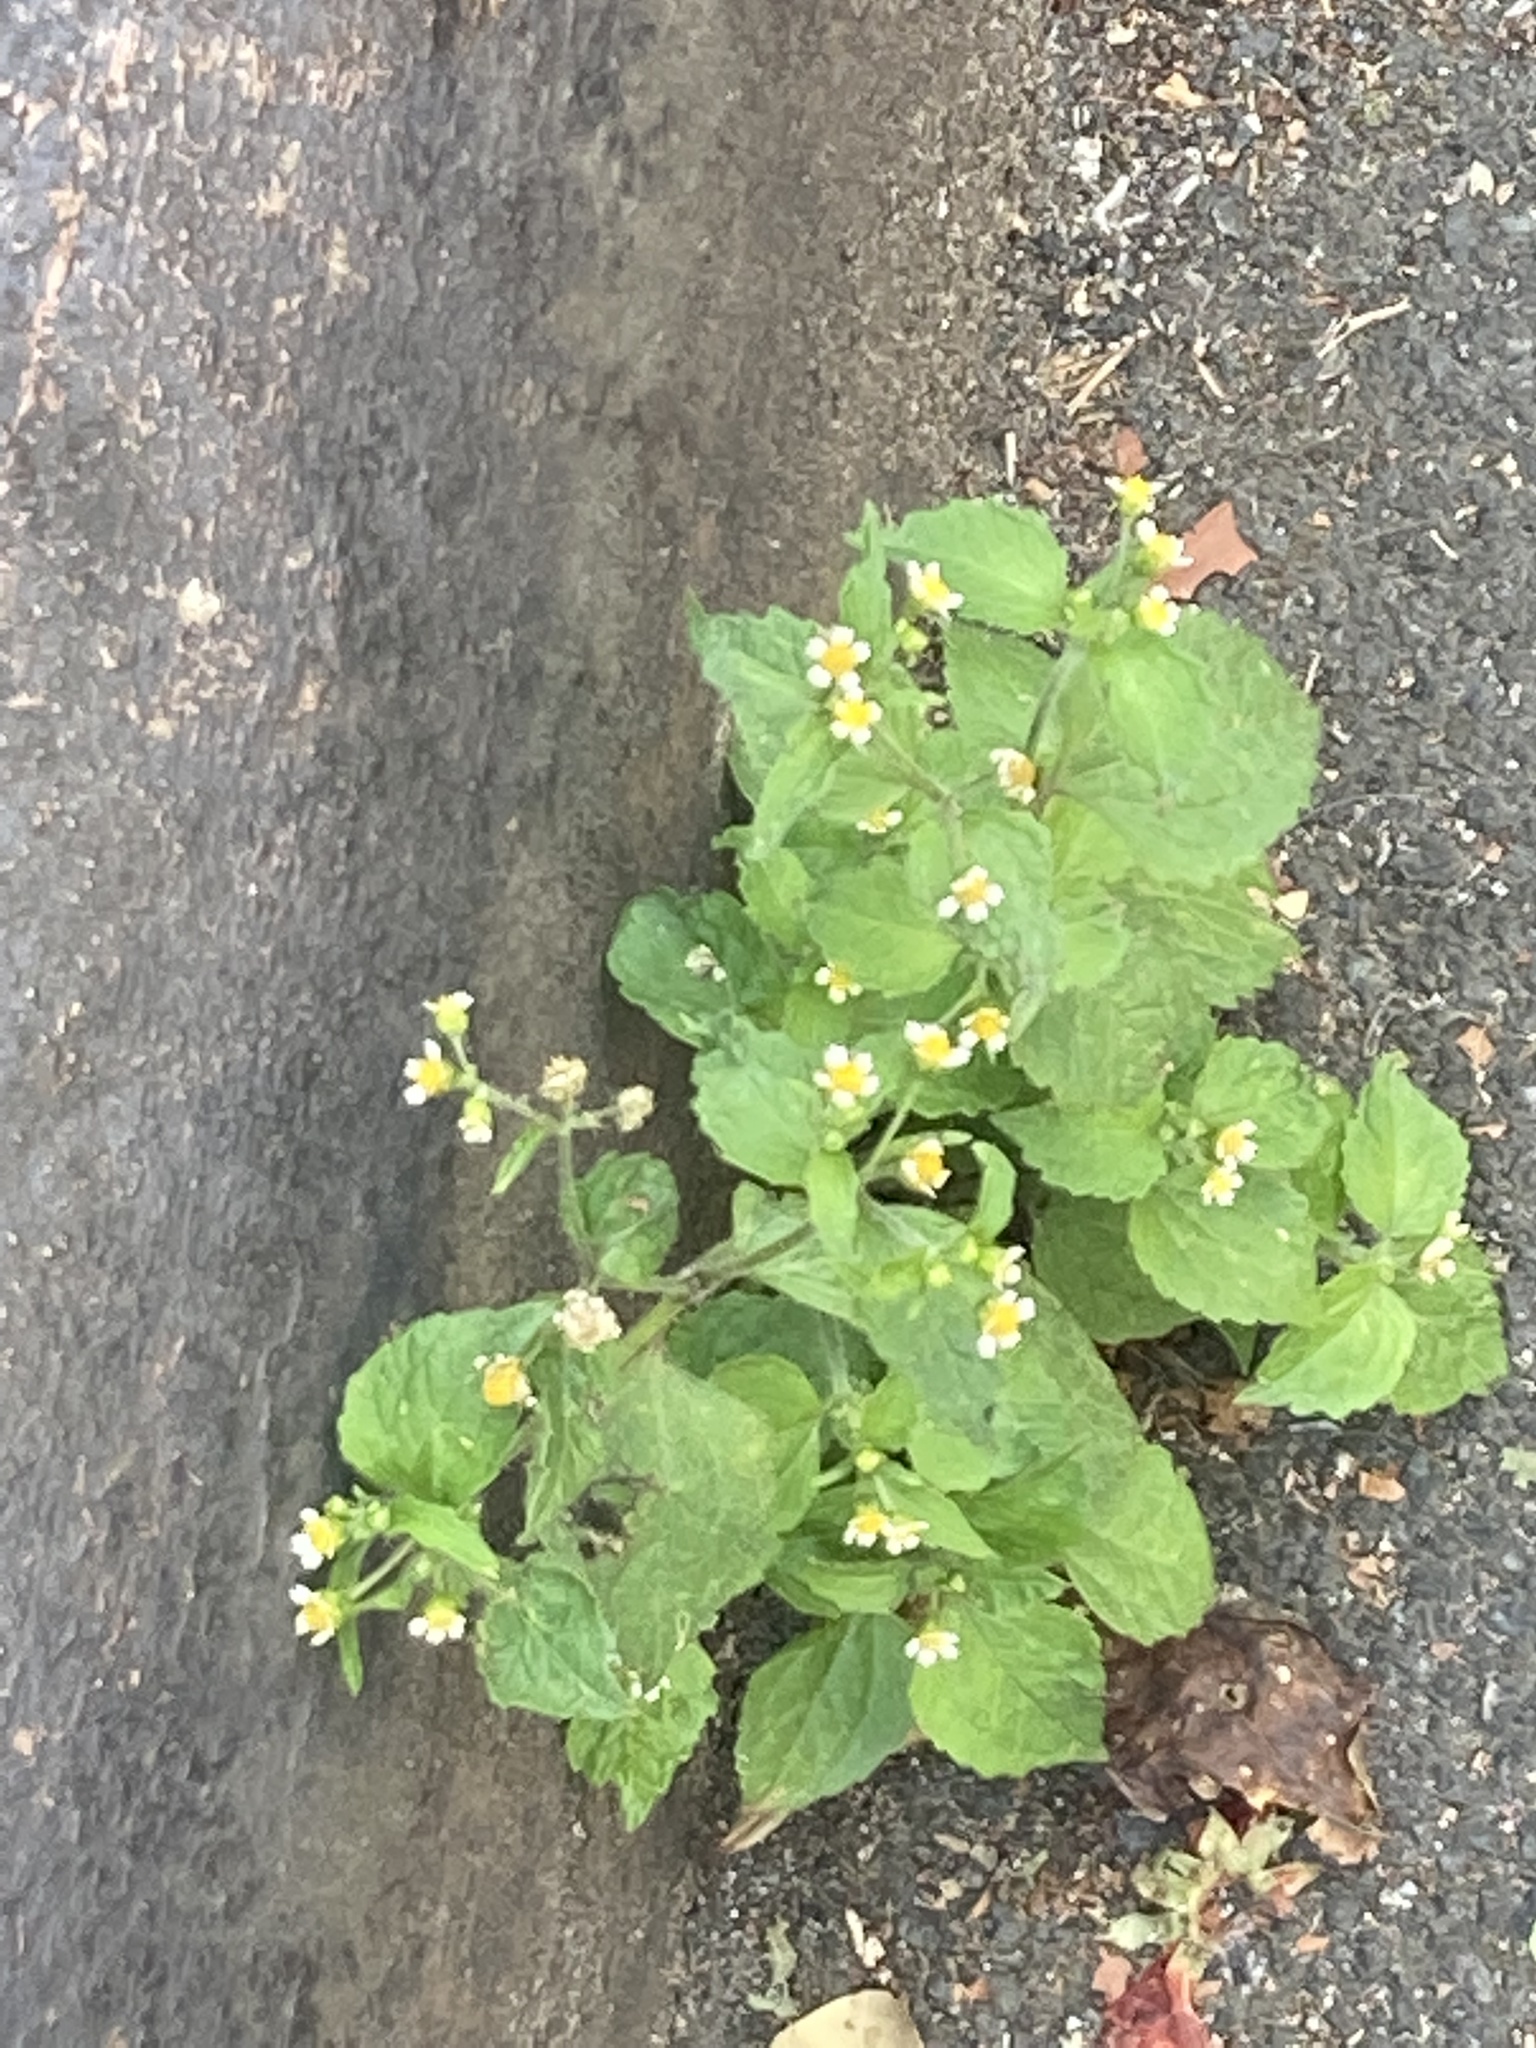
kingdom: Plantae
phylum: Tracheophyta
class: Magnoliopsida
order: Asterales
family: Asteraceae
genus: Galinsoga
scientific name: Galinsoga quadriradiata
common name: Shaggy soldier
